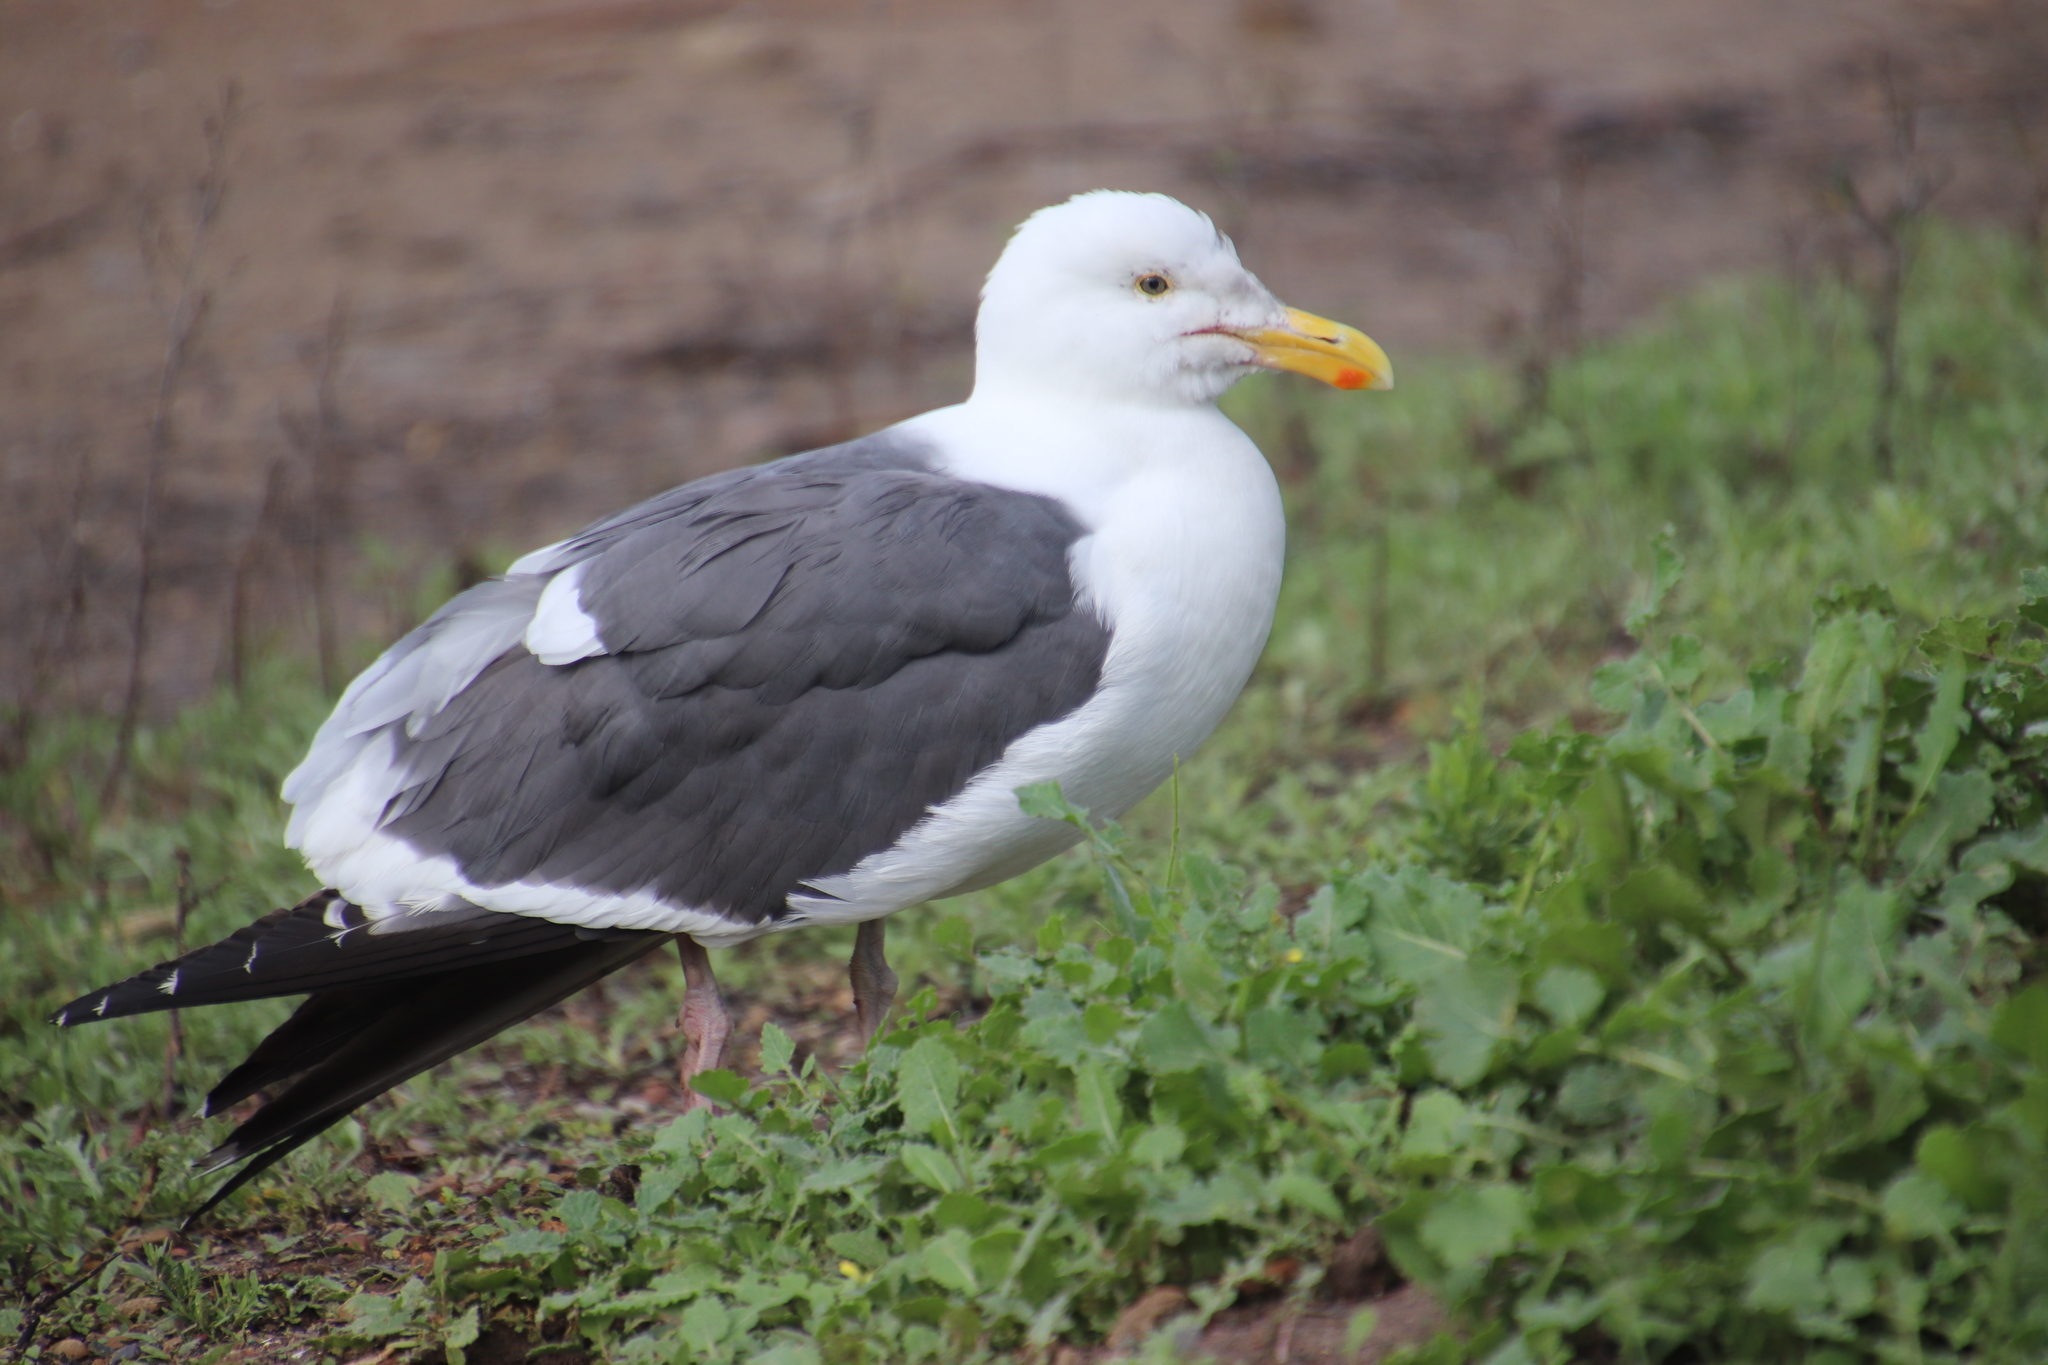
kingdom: Animalia
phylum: Chordata
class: Aves
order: Charadriiformes
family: Laridae
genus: Larus
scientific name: Larus occidentalis
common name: Western gull
